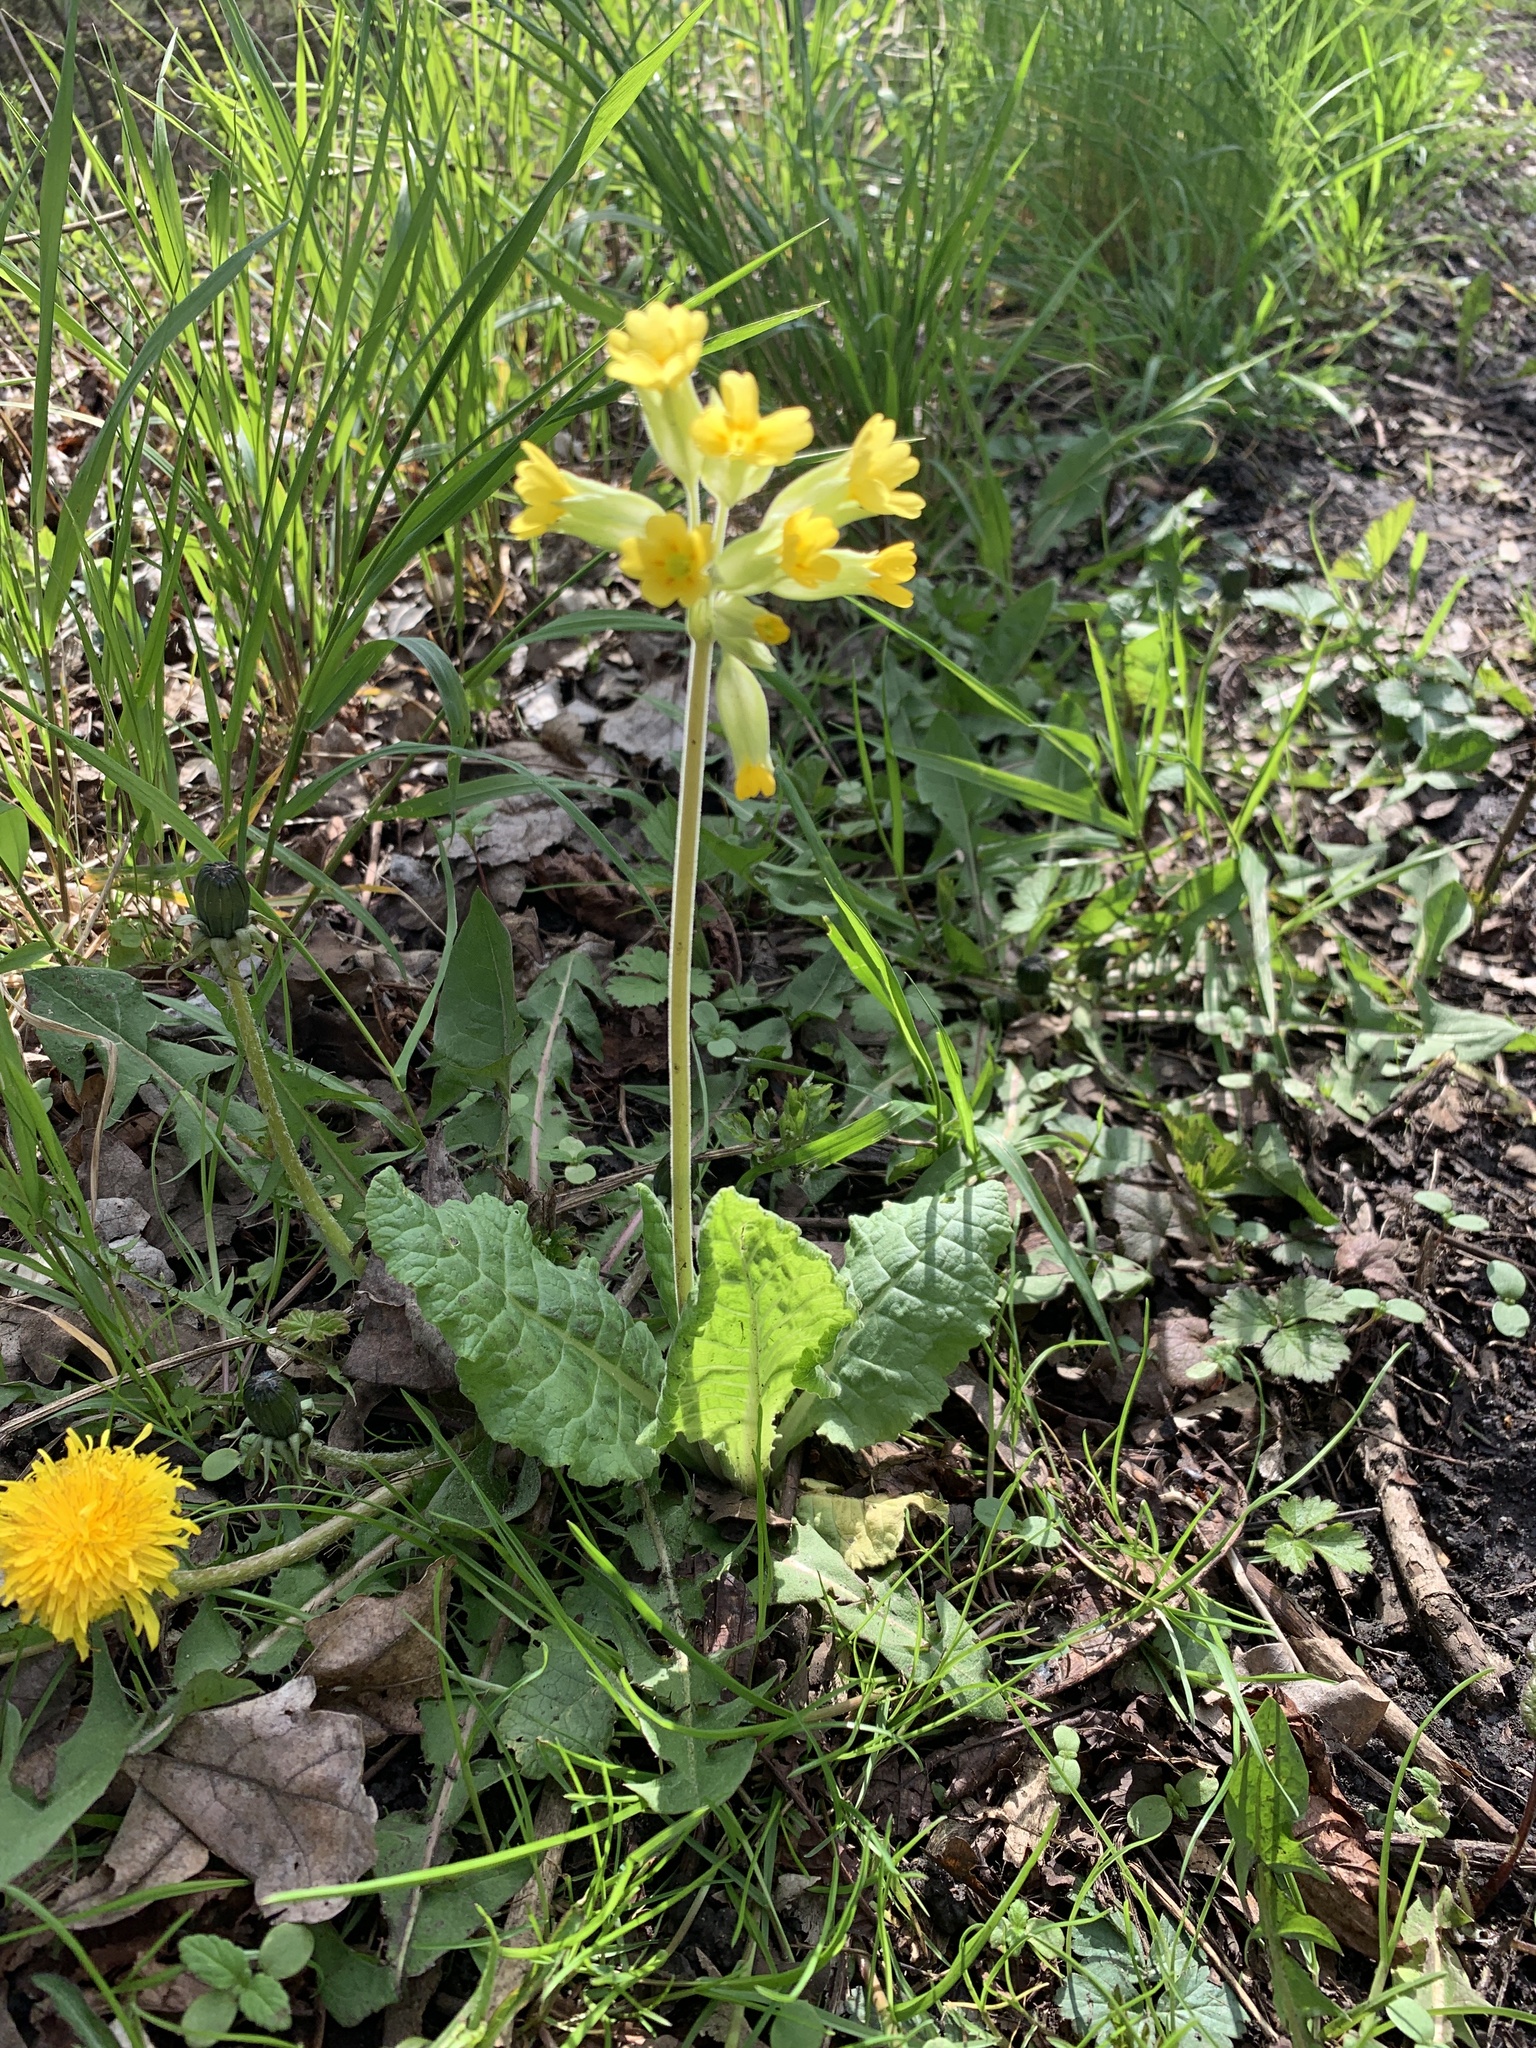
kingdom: Plantae
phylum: Tracheophyta
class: Magnoliopsida
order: Ericales
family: Primulaceae
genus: Primula
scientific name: Primula veris
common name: Cowslip
